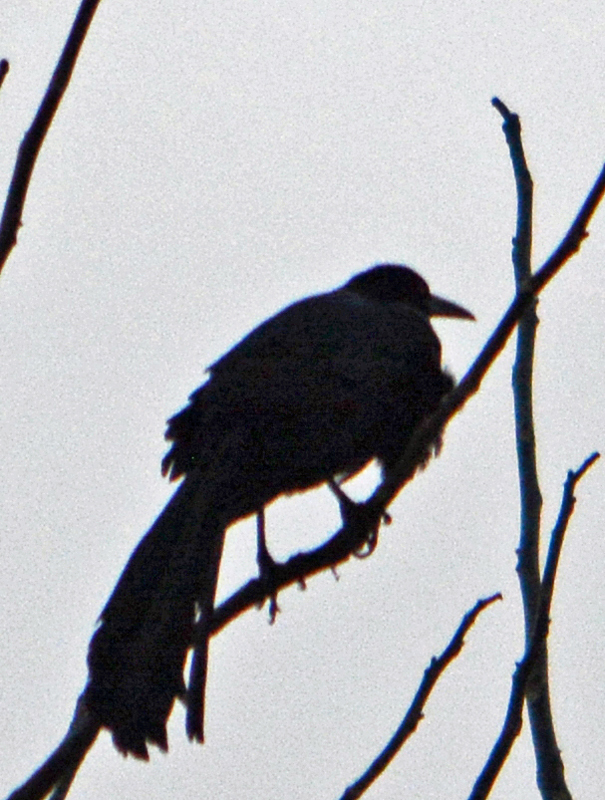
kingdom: Animalia
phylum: Chordata
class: Aves
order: Passeriformes
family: Icteridae
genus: Quiscalus
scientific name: Quiscalus mexicanus
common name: Great-tailed grackle
